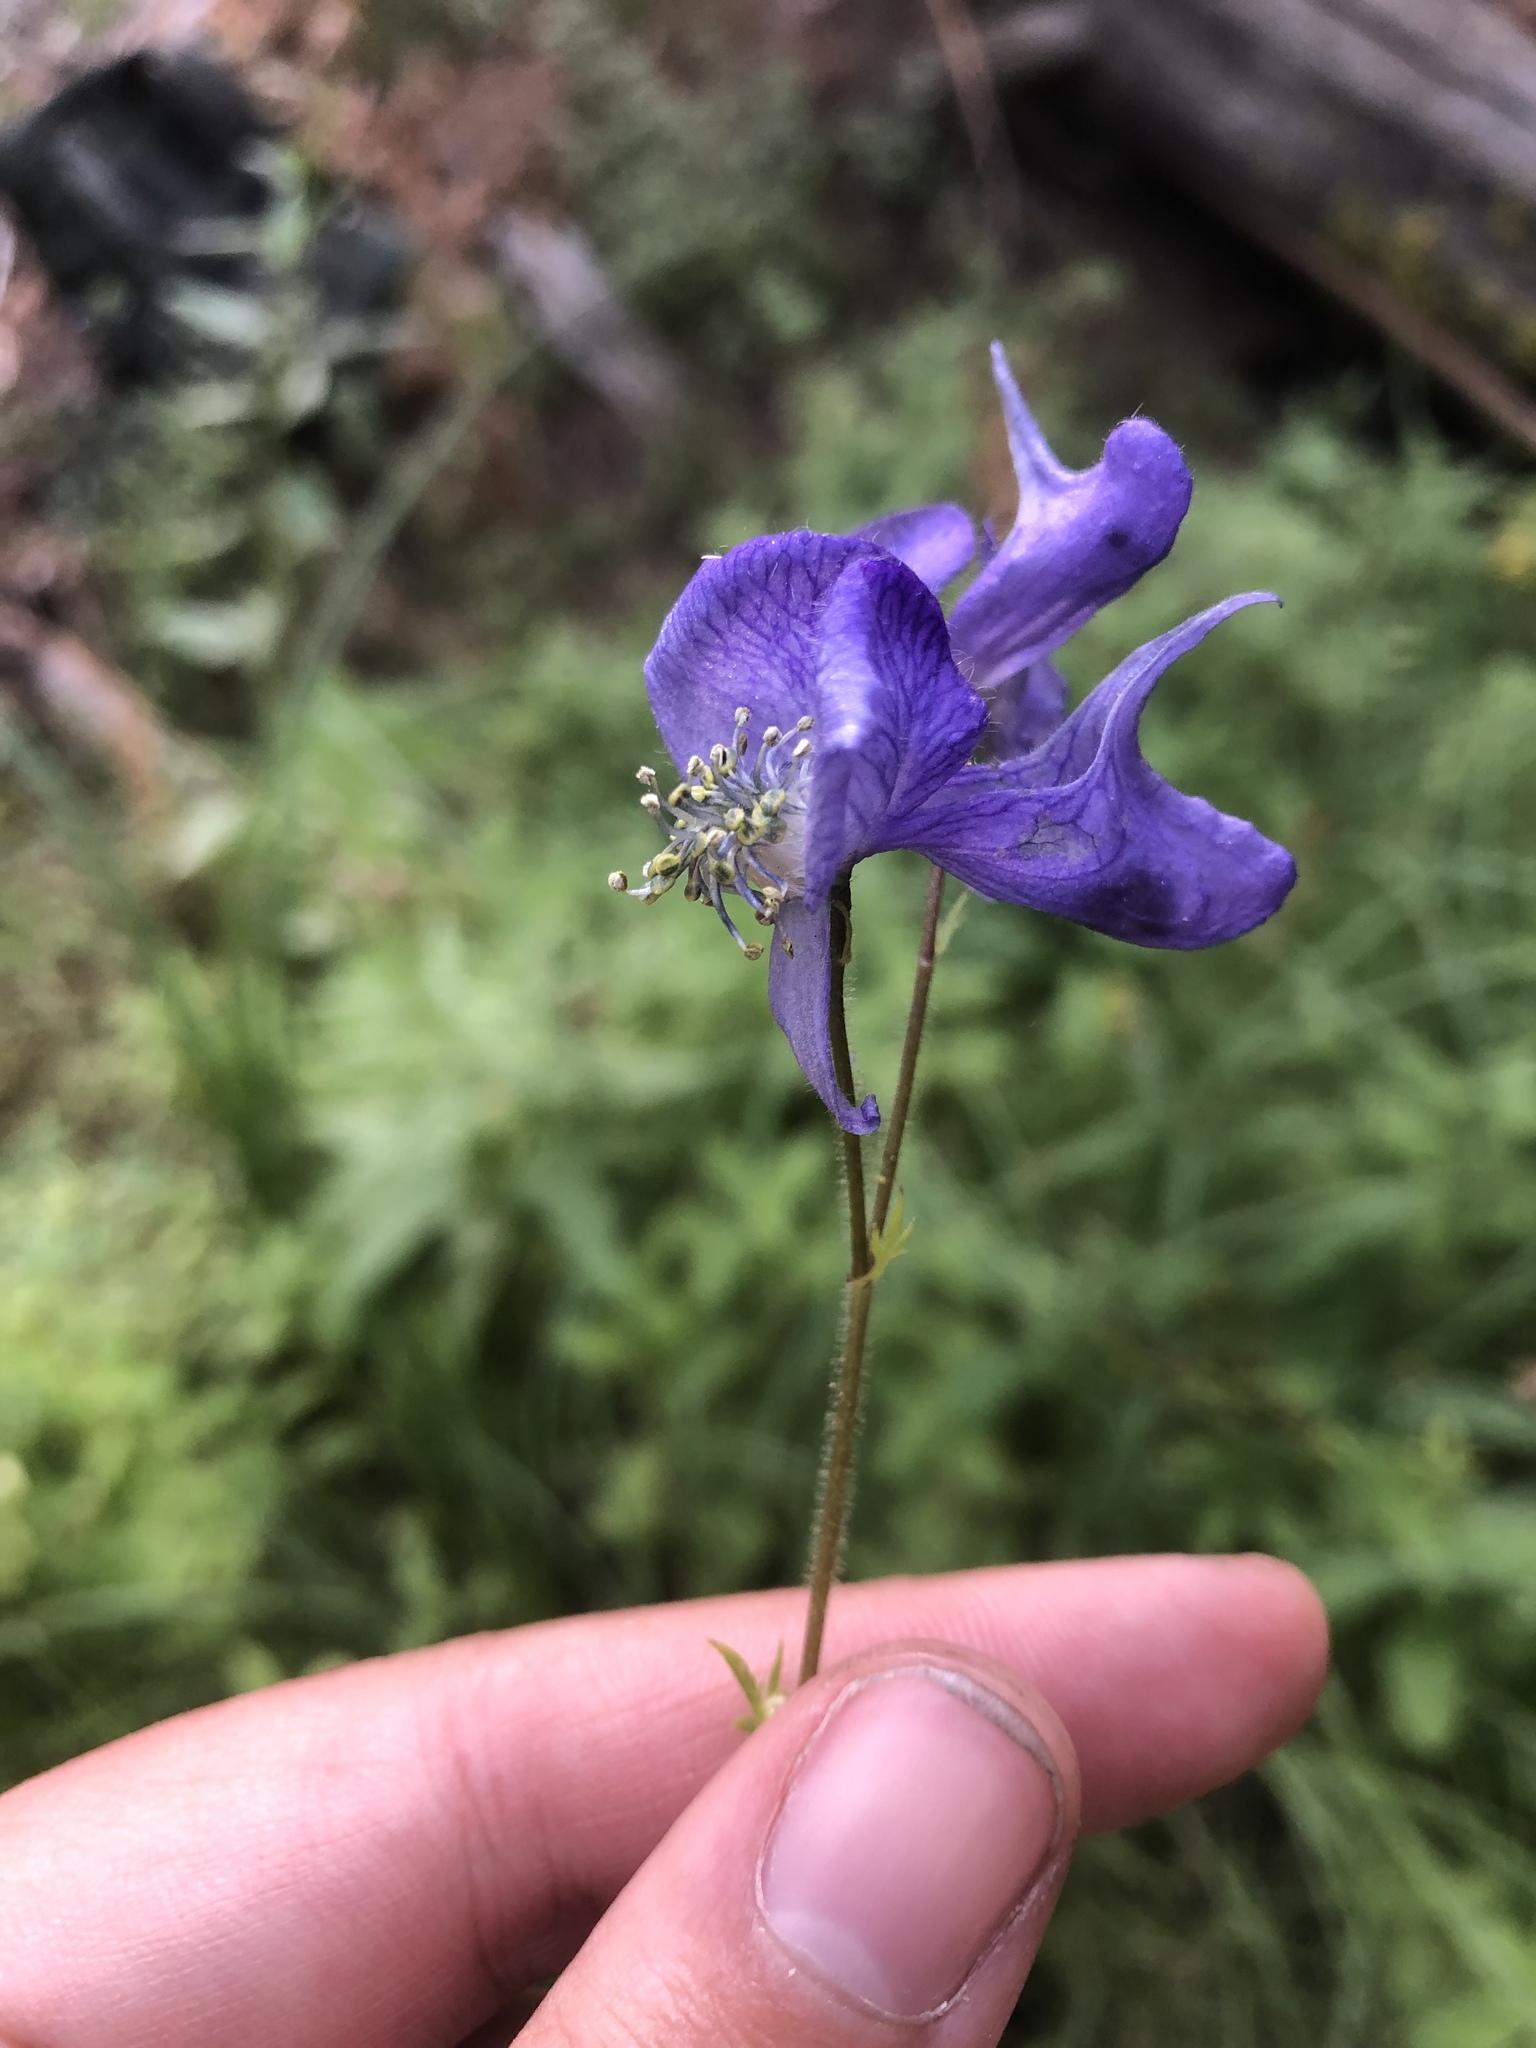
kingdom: Plantae
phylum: Tracheophyta
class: Magnoliopsida
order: Ranunculales
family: Ranunculaceae
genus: Aconitum
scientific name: Aconitum columbianum
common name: Columbia aconite
